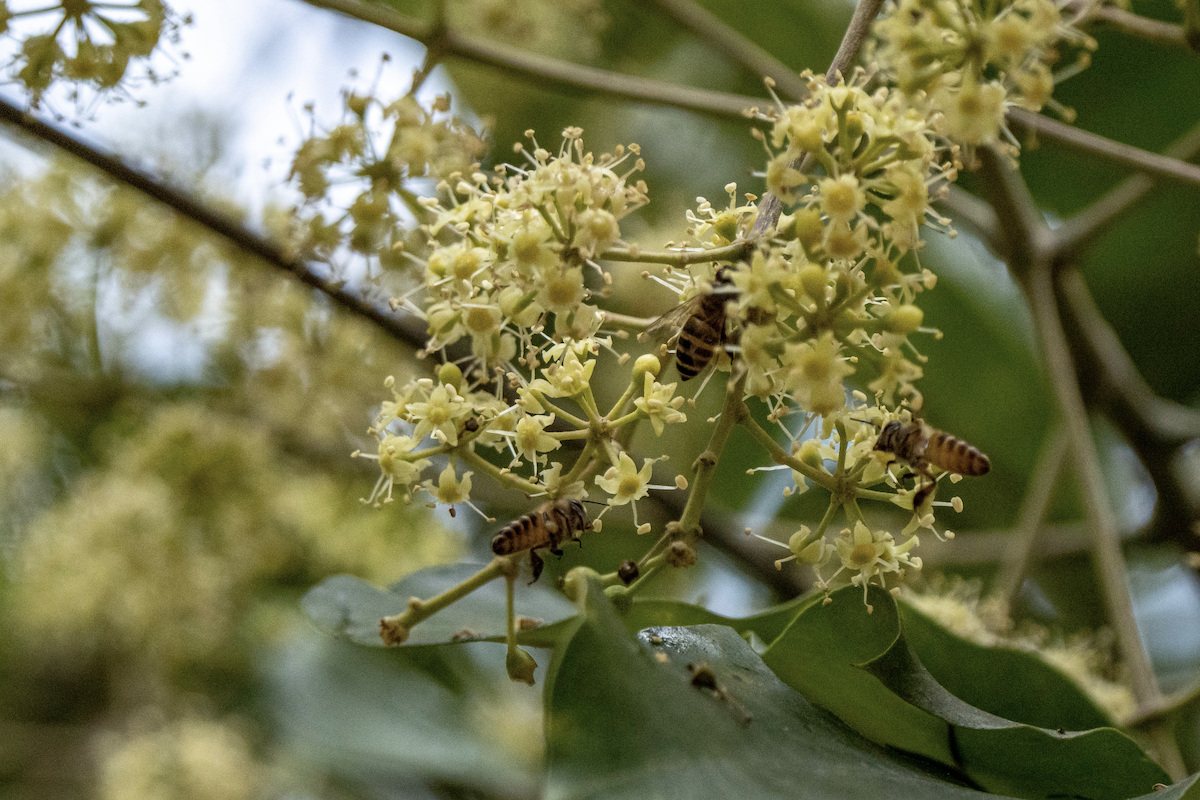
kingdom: Plantae
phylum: Tracheophyta
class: Magnoliopsida
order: Apiales
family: Araliaceae
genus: Heptapleurum
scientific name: Heptapleurum heptaphyllum
